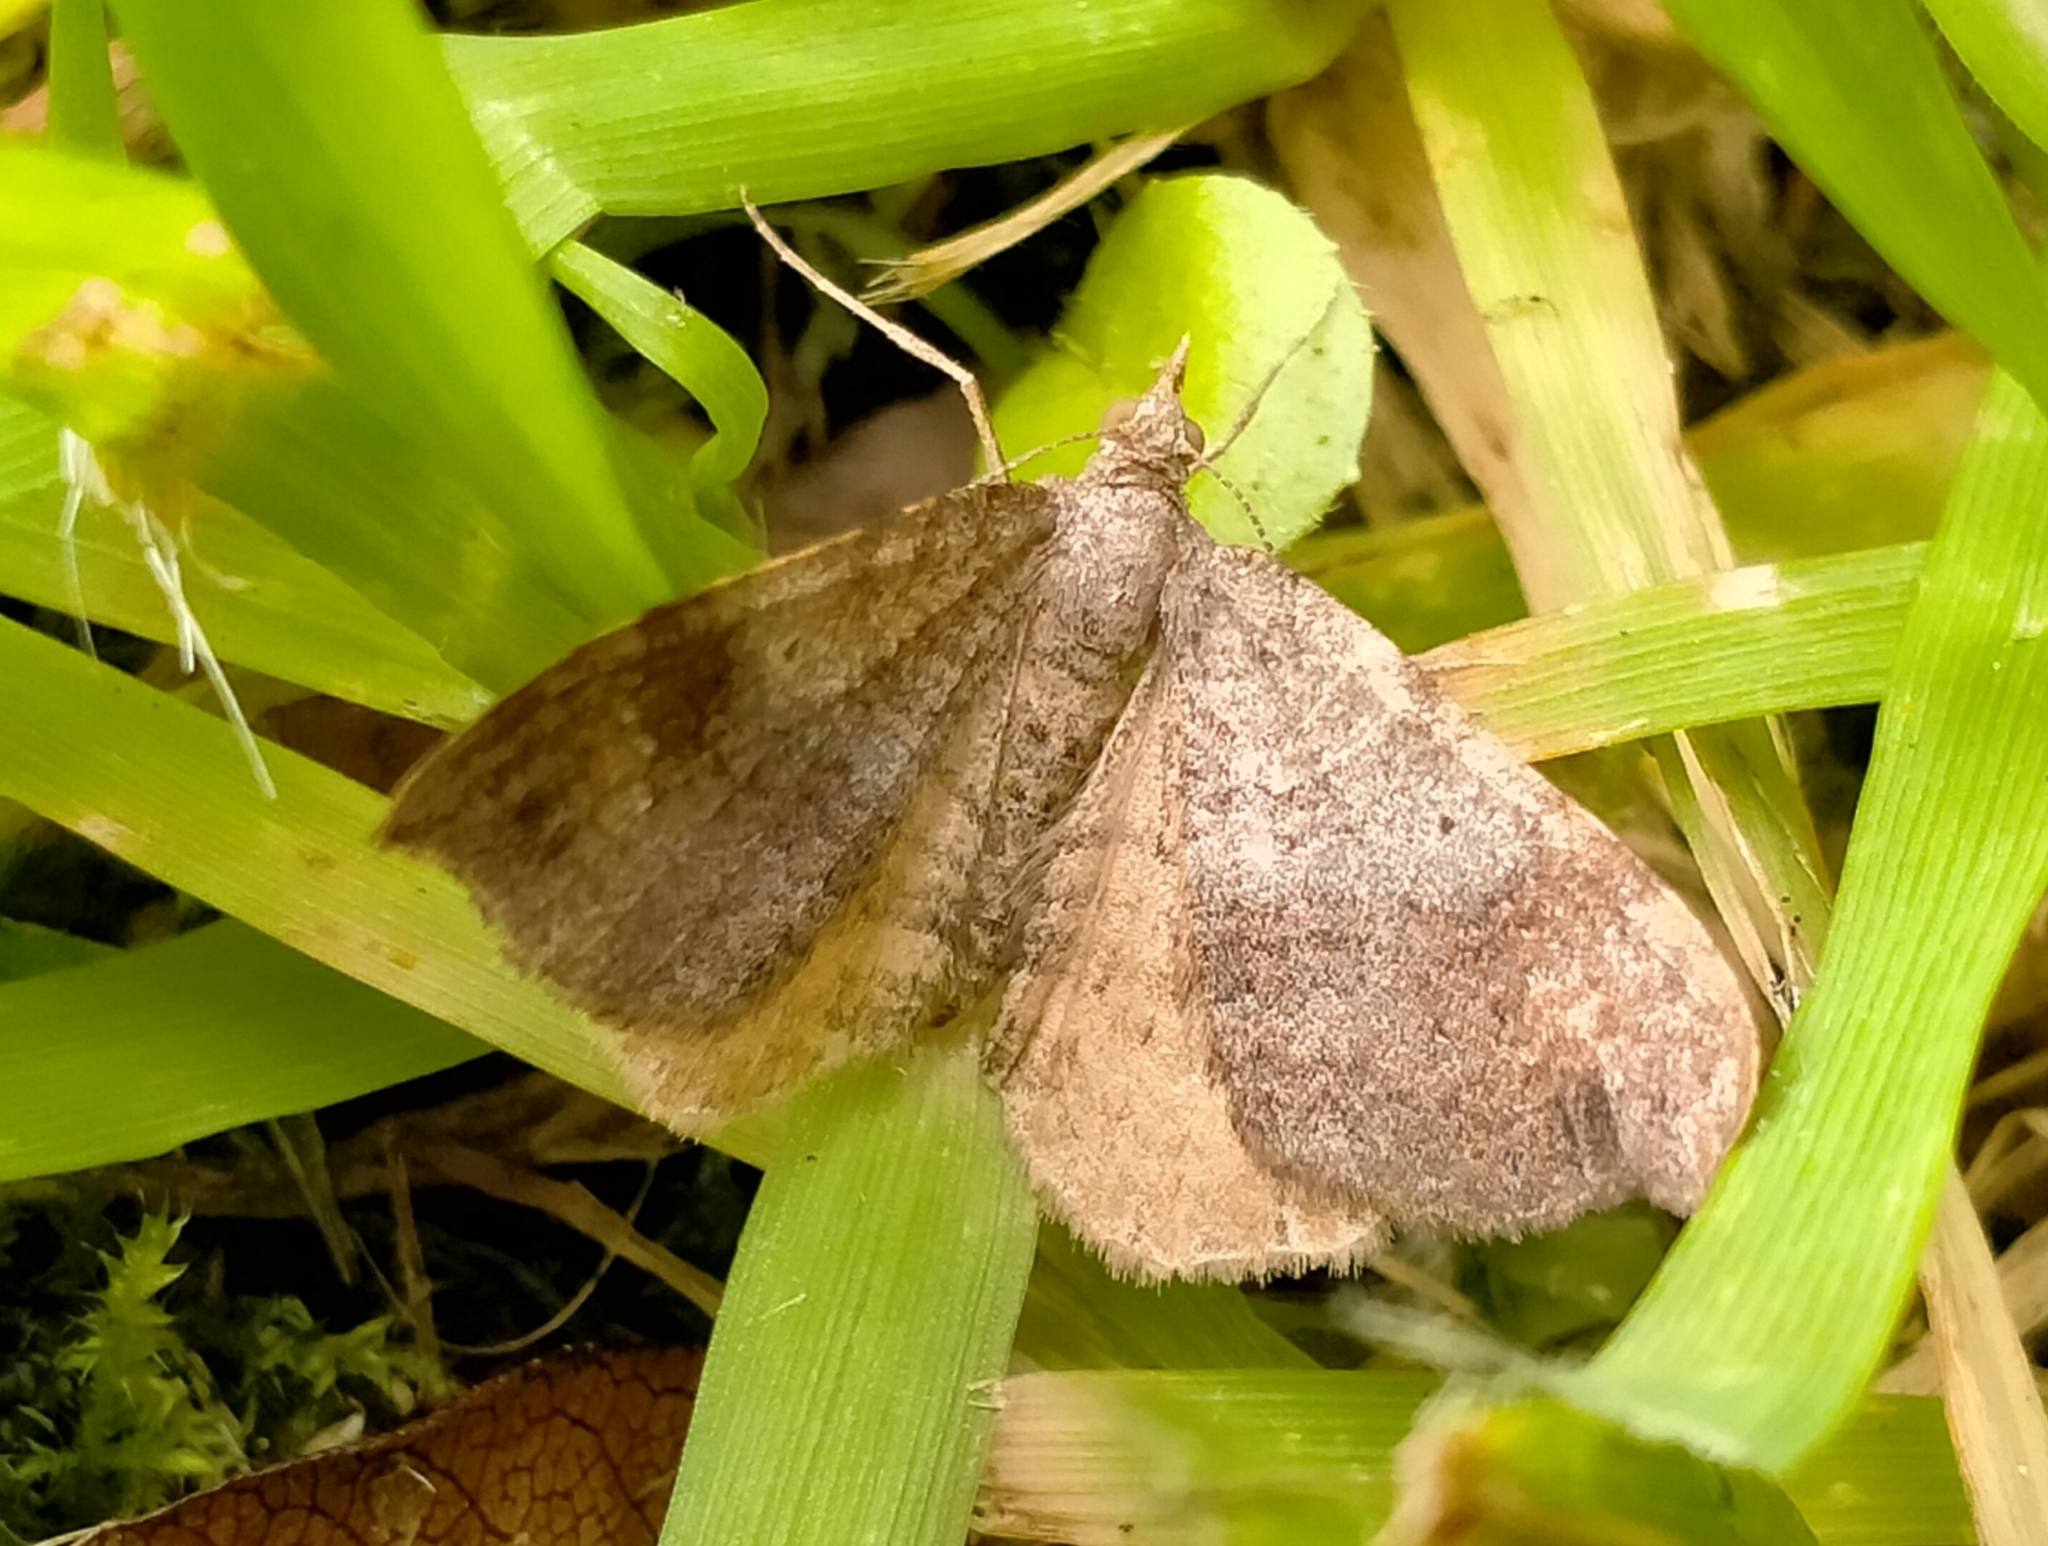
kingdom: Animalia
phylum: Arthropoda
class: Insecta
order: Lepidoptera
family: Geometridae
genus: Homodotis
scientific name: Homodotis megaspilata
